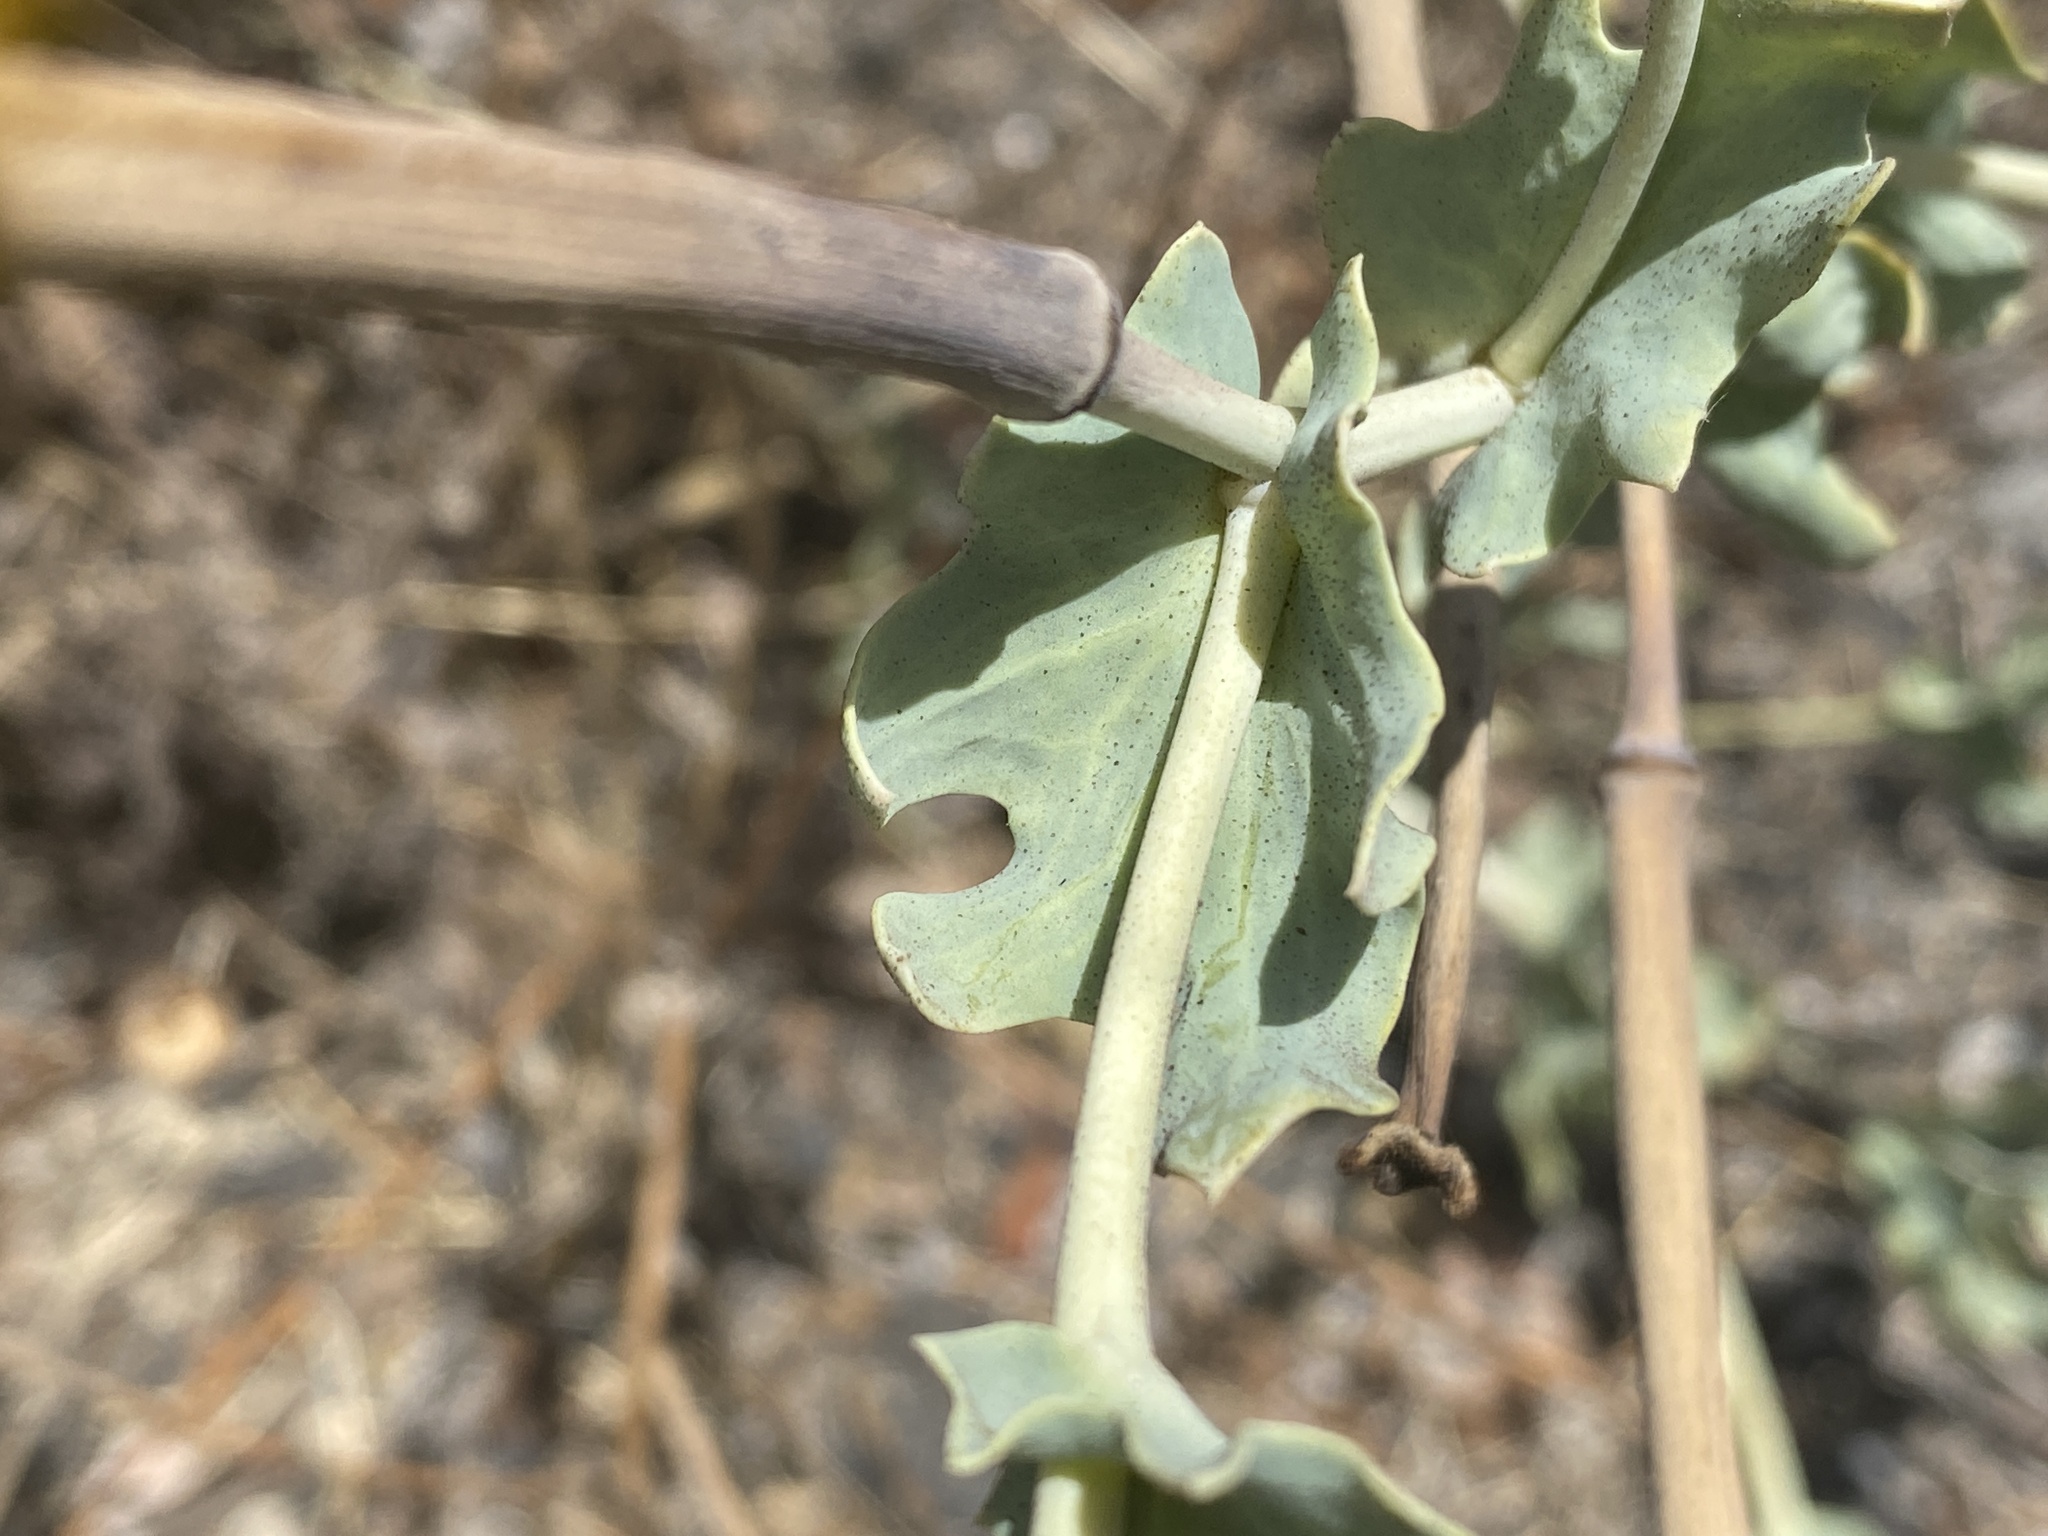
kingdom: Plantae
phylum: Tracheophyta
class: Magnoliopsida
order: Ranunculales
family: Papaveraceae
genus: Glaucium
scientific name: Glaucium flavum
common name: Yellow horned-poppy
